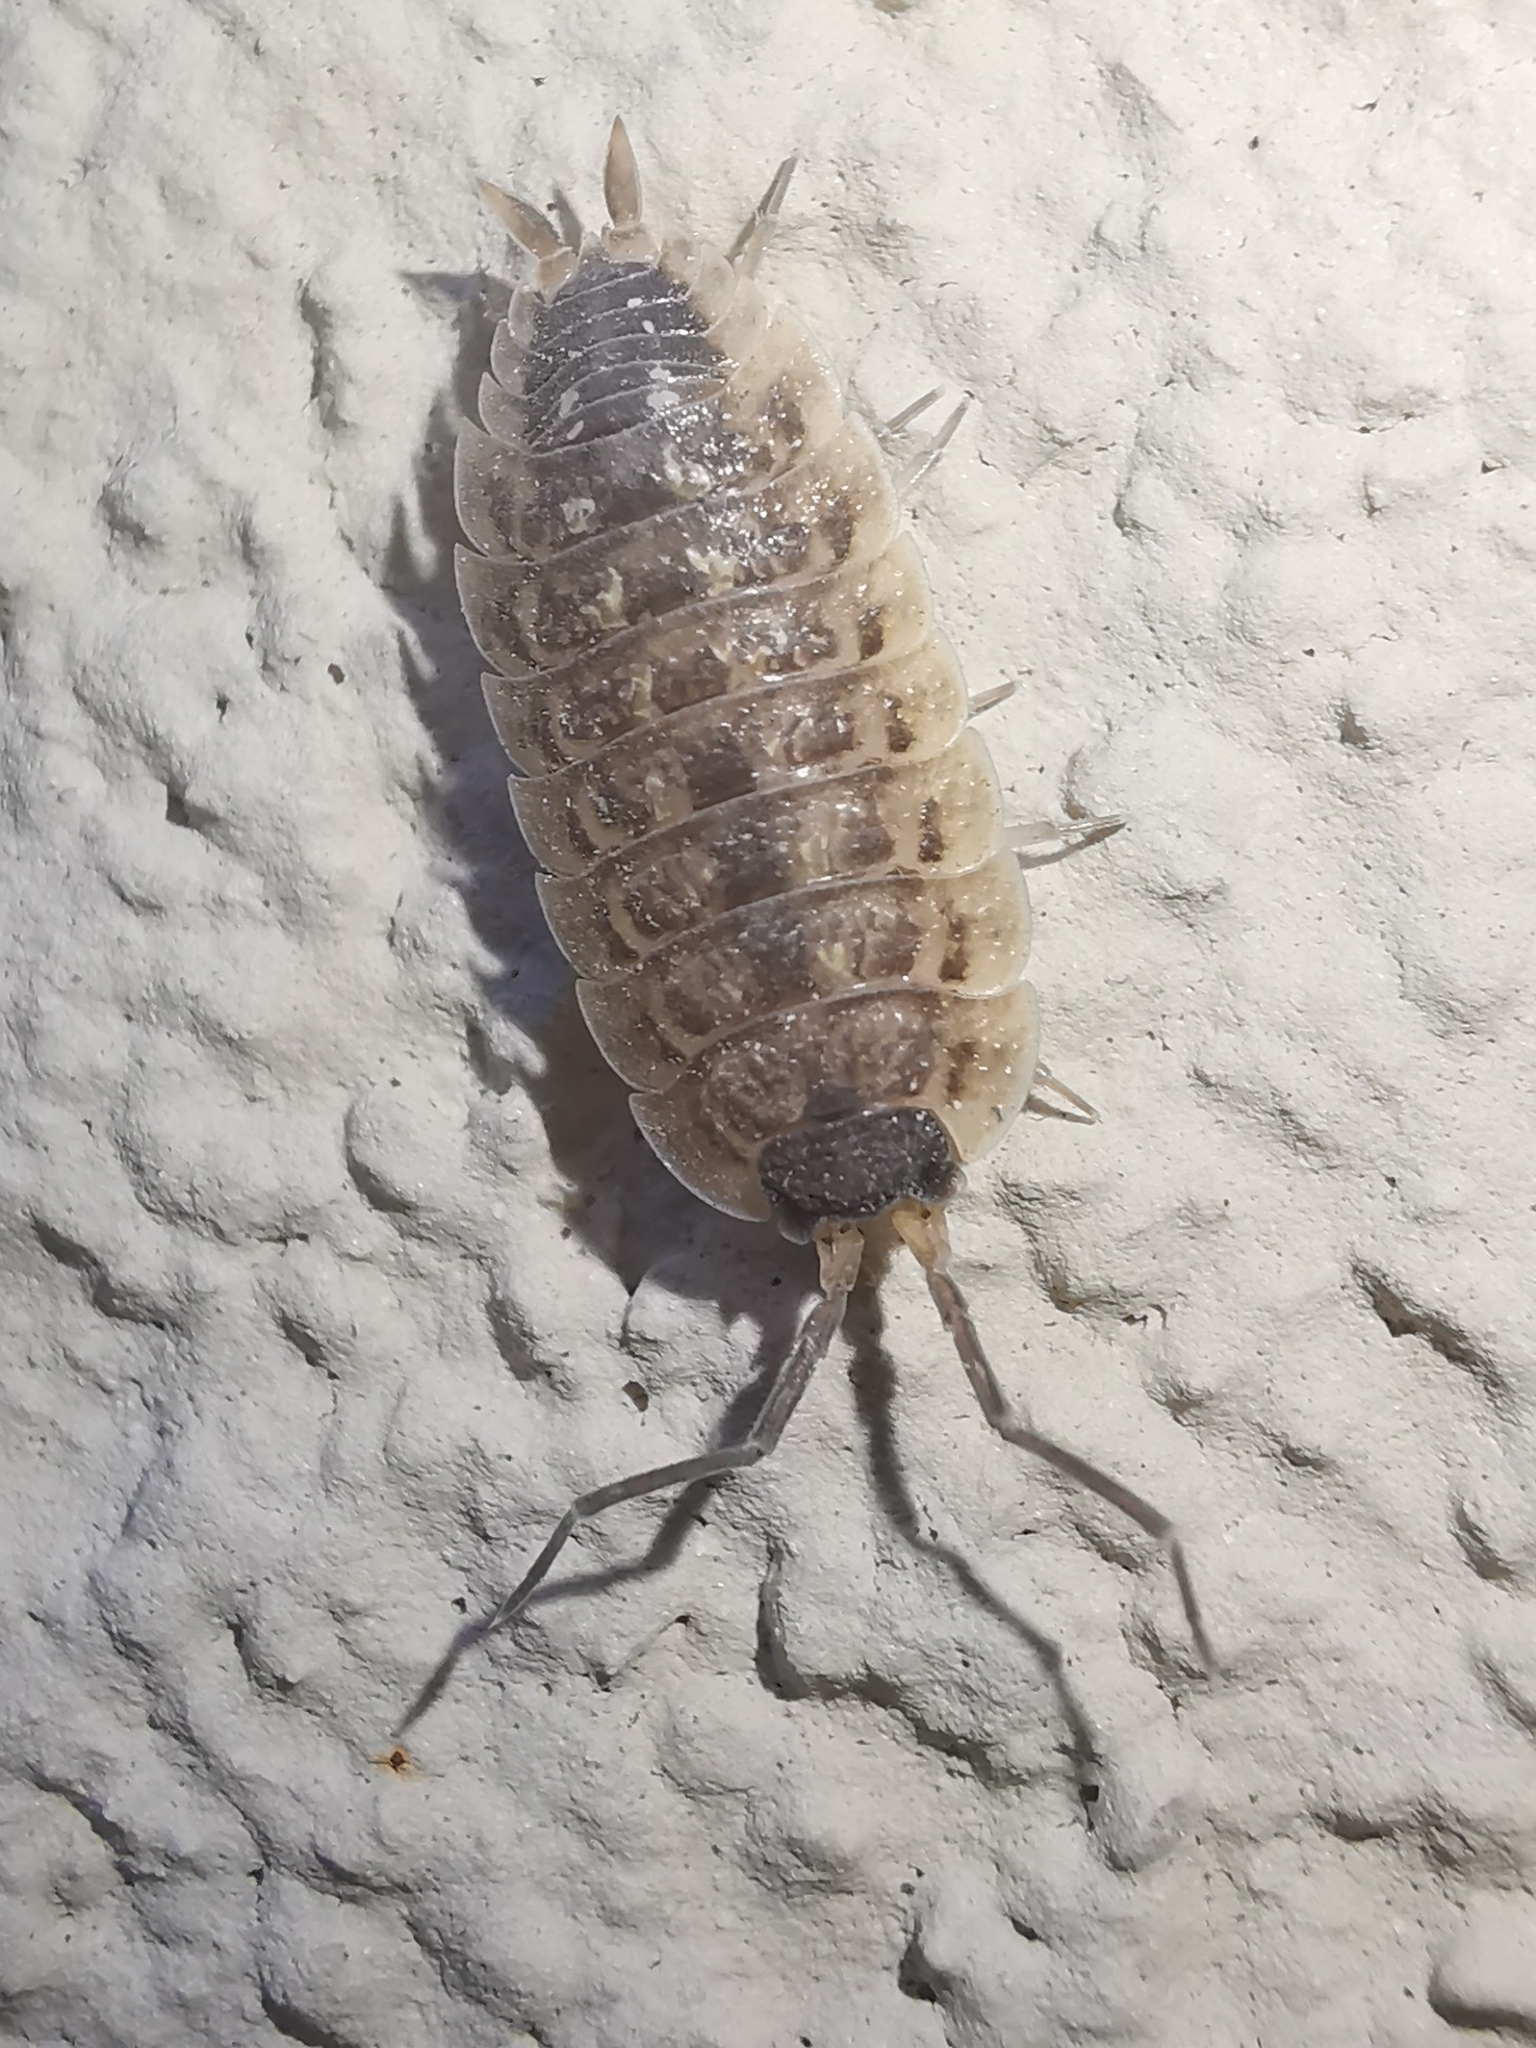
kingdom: Animalia
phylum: Arthropoda
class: Malacostraca
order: Isopoda
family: Porcellionidae
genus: Porcellio
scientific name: Porcellio spinicornis
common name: Painted woodlouse
